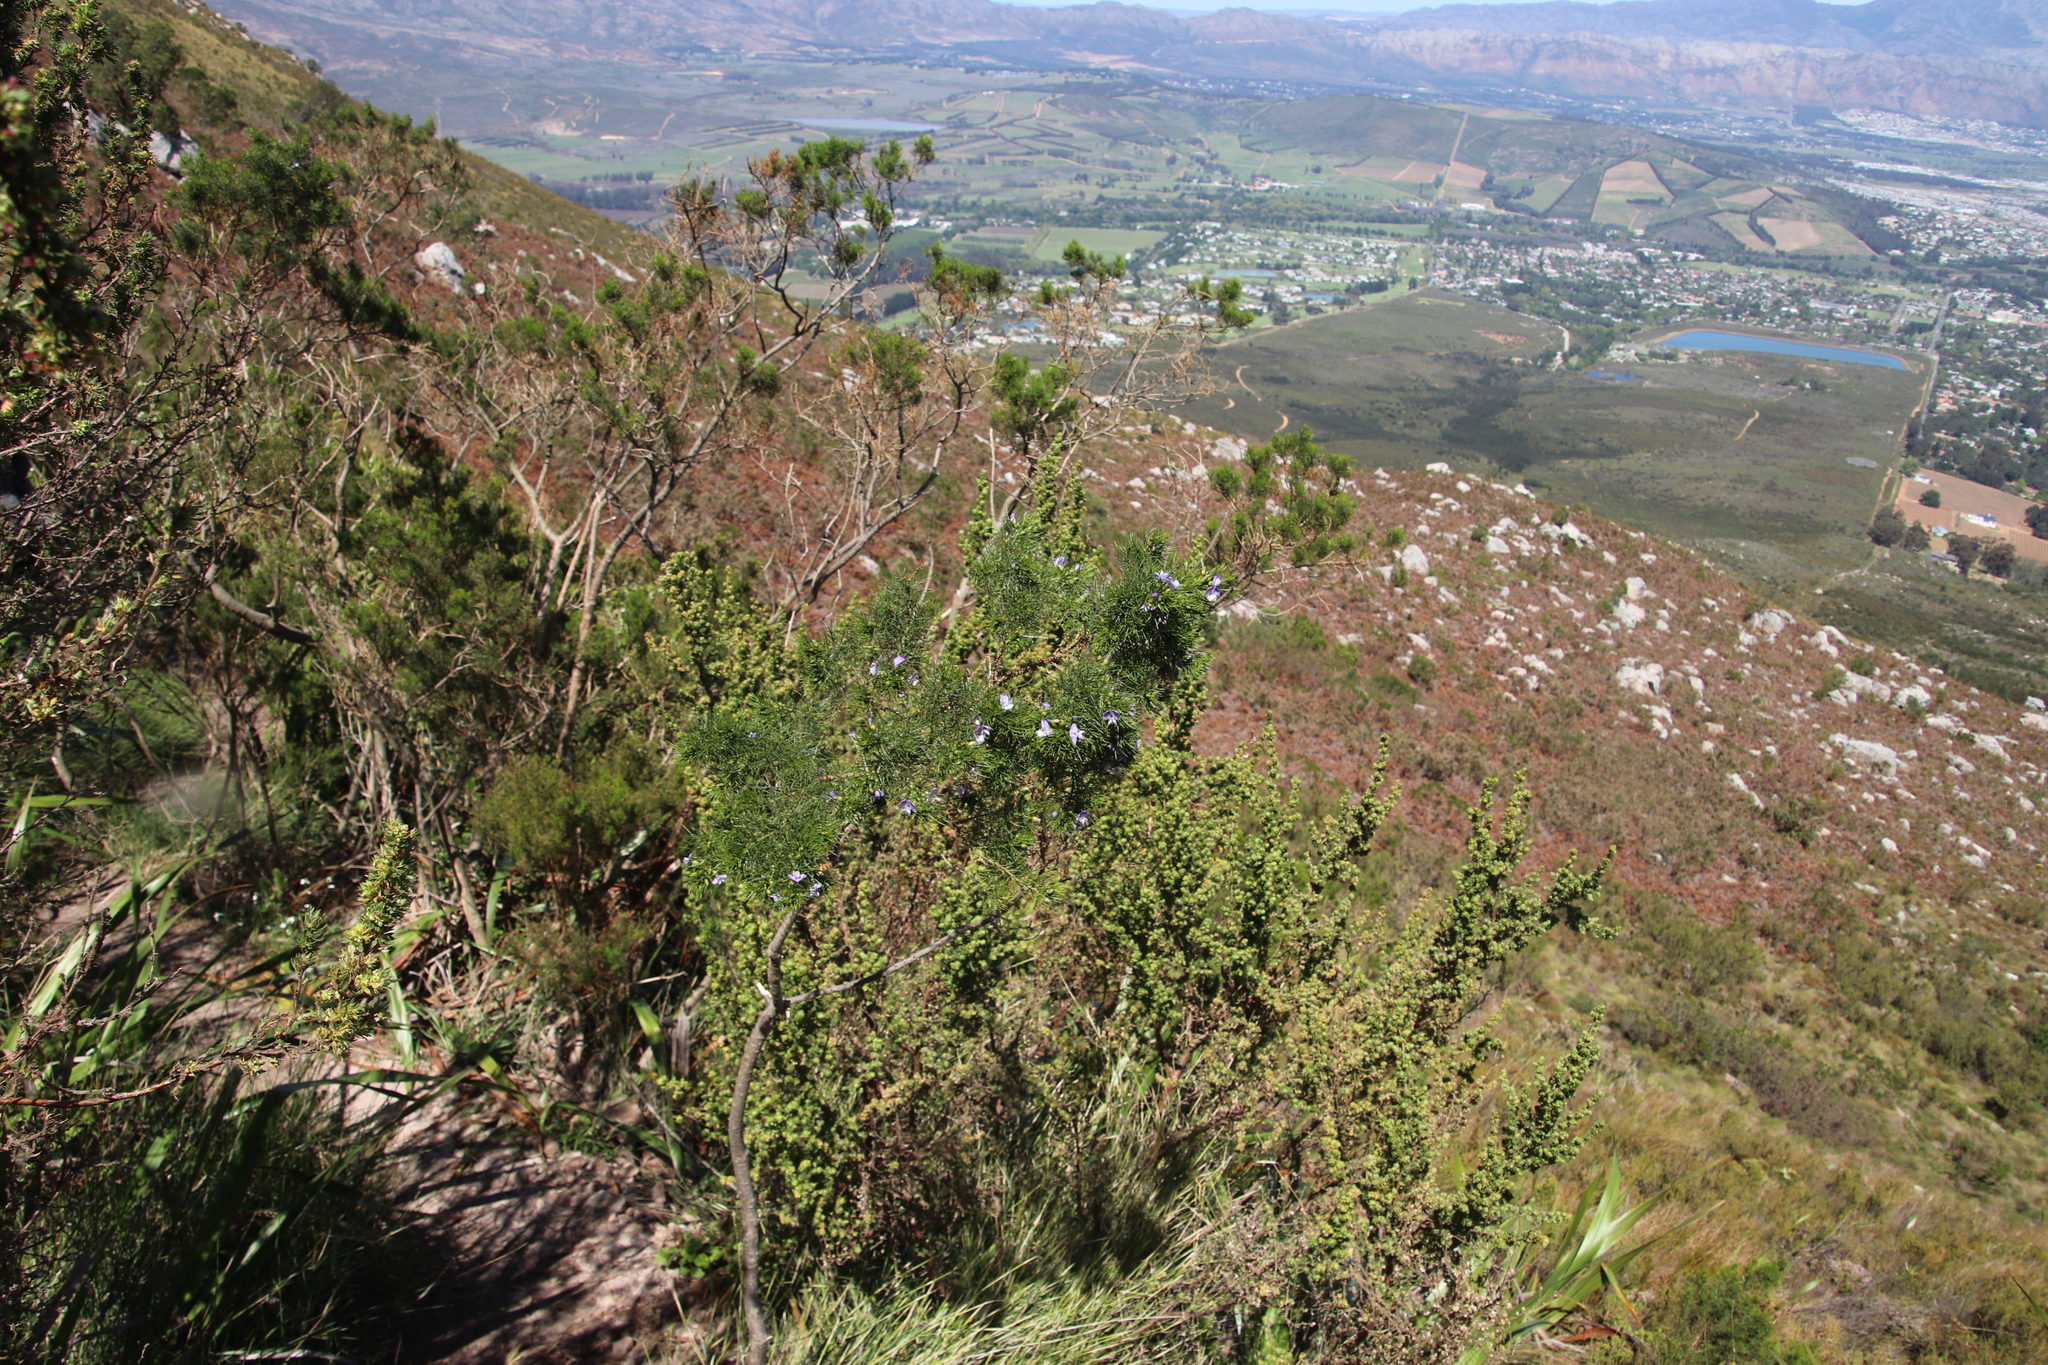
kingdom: Plantae
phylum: Tracheophyta
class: Magnoliopsida
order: Fabales
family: Fabaceae
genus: Psoralea
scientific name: Psoralea pinnata
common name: African scurfpea
